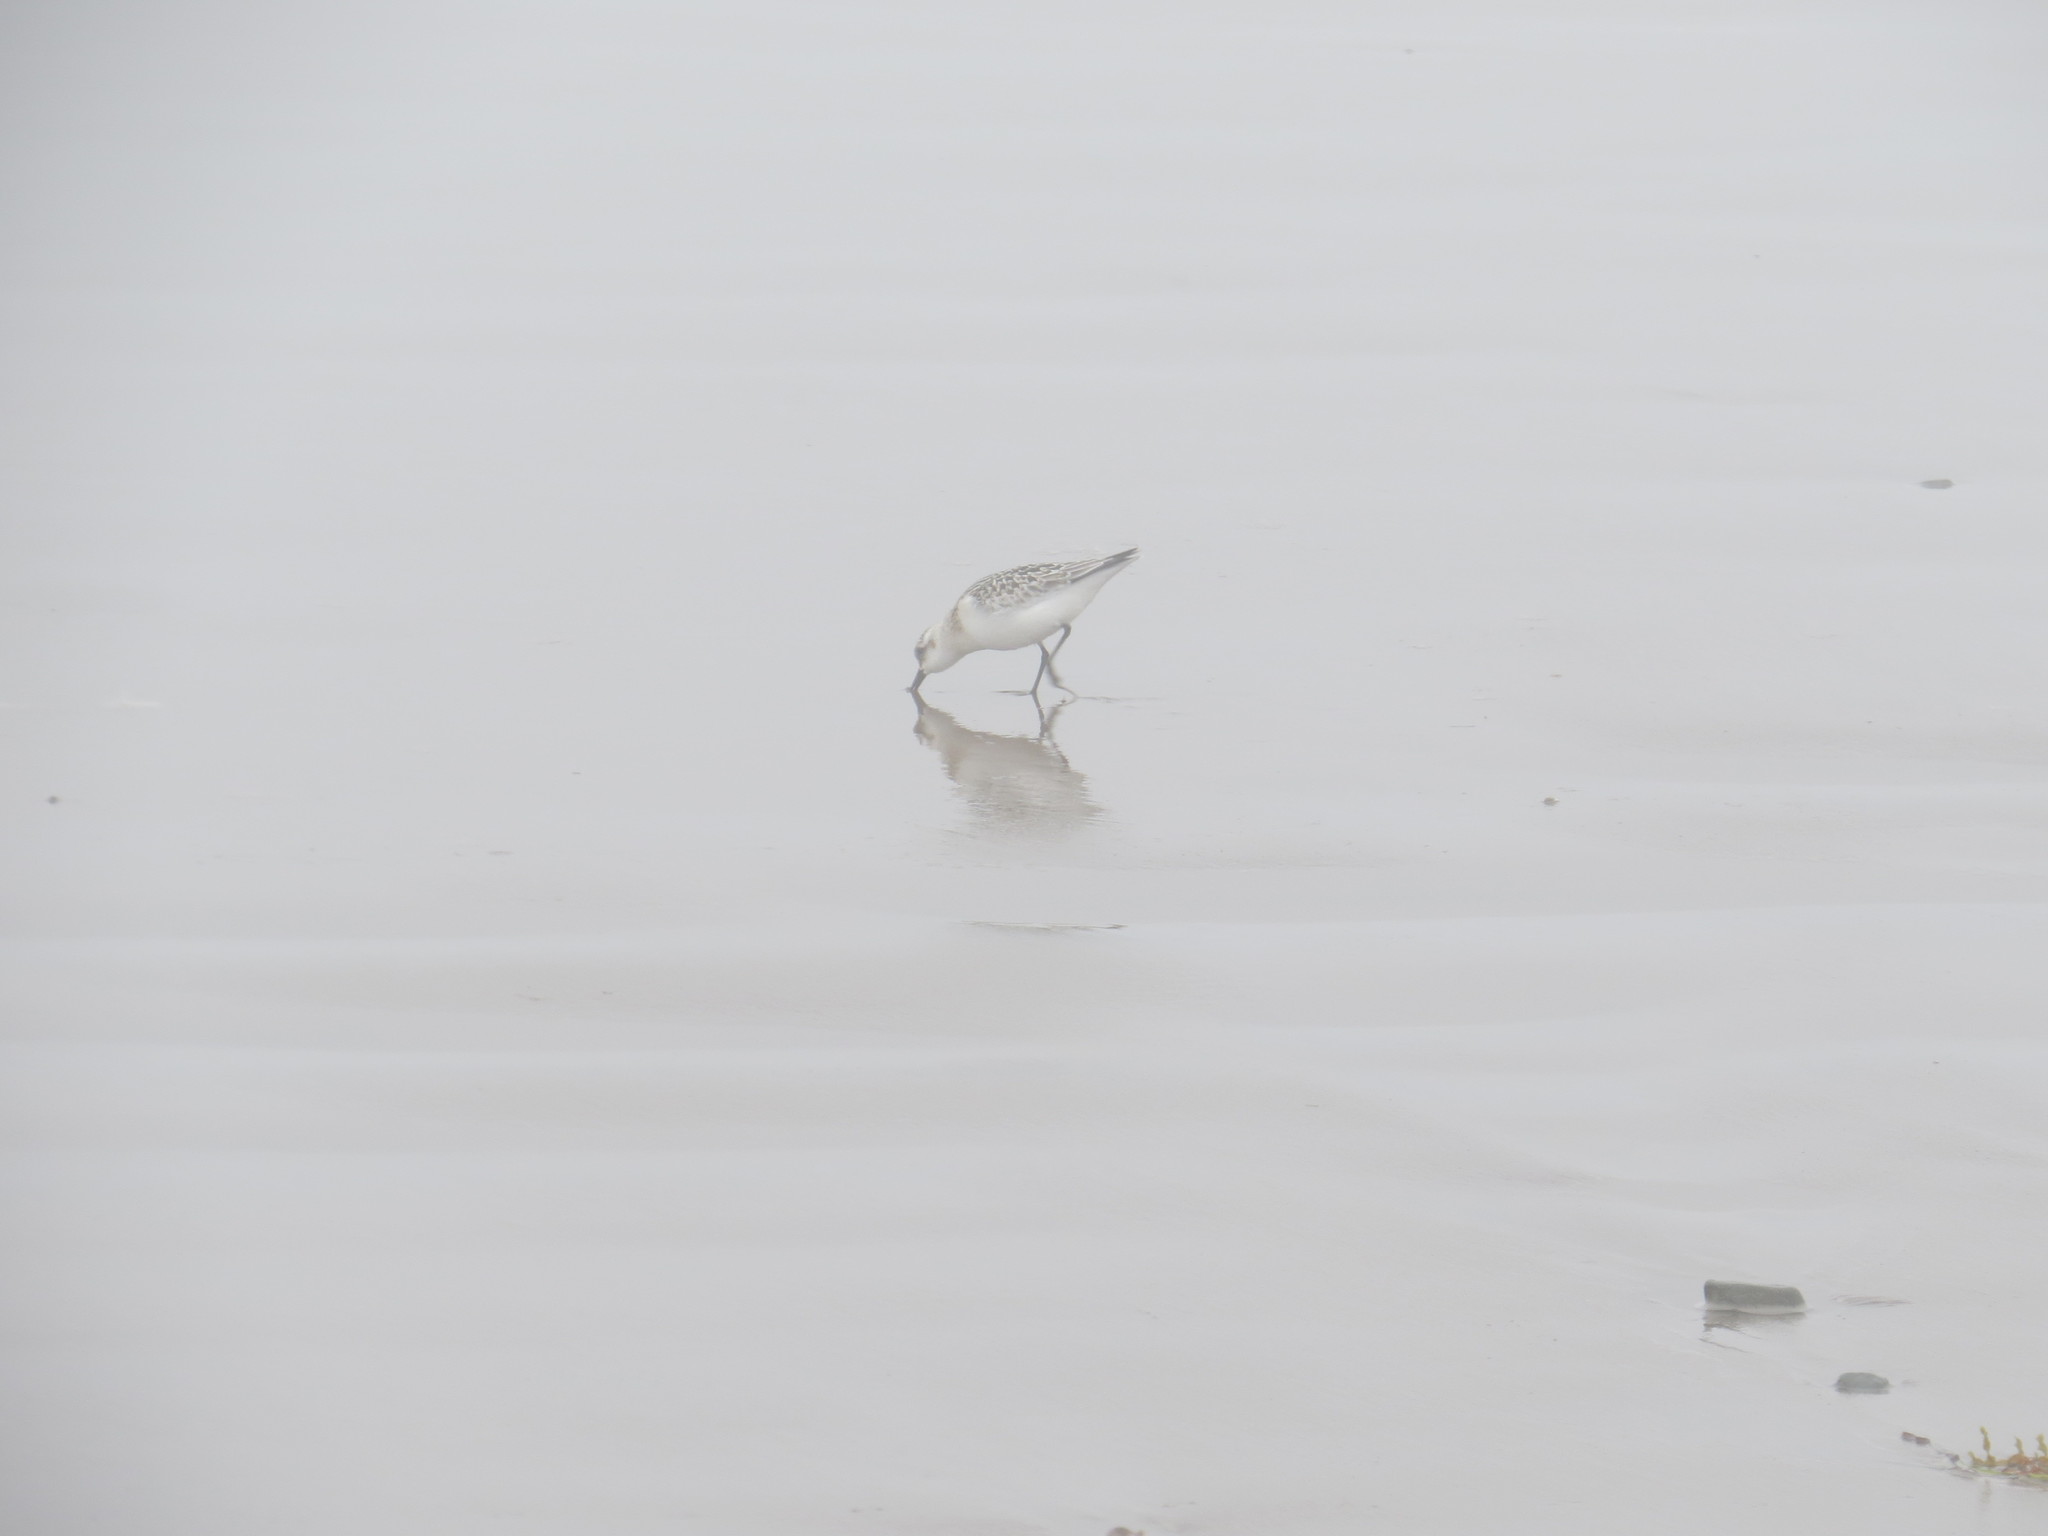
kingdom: Animalia
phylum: Chordata
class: Aves
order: Charadriiformes
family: Scolopacidae
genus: Calidris
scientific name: Calidris pusilla
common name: Semipalmated sandpiper
